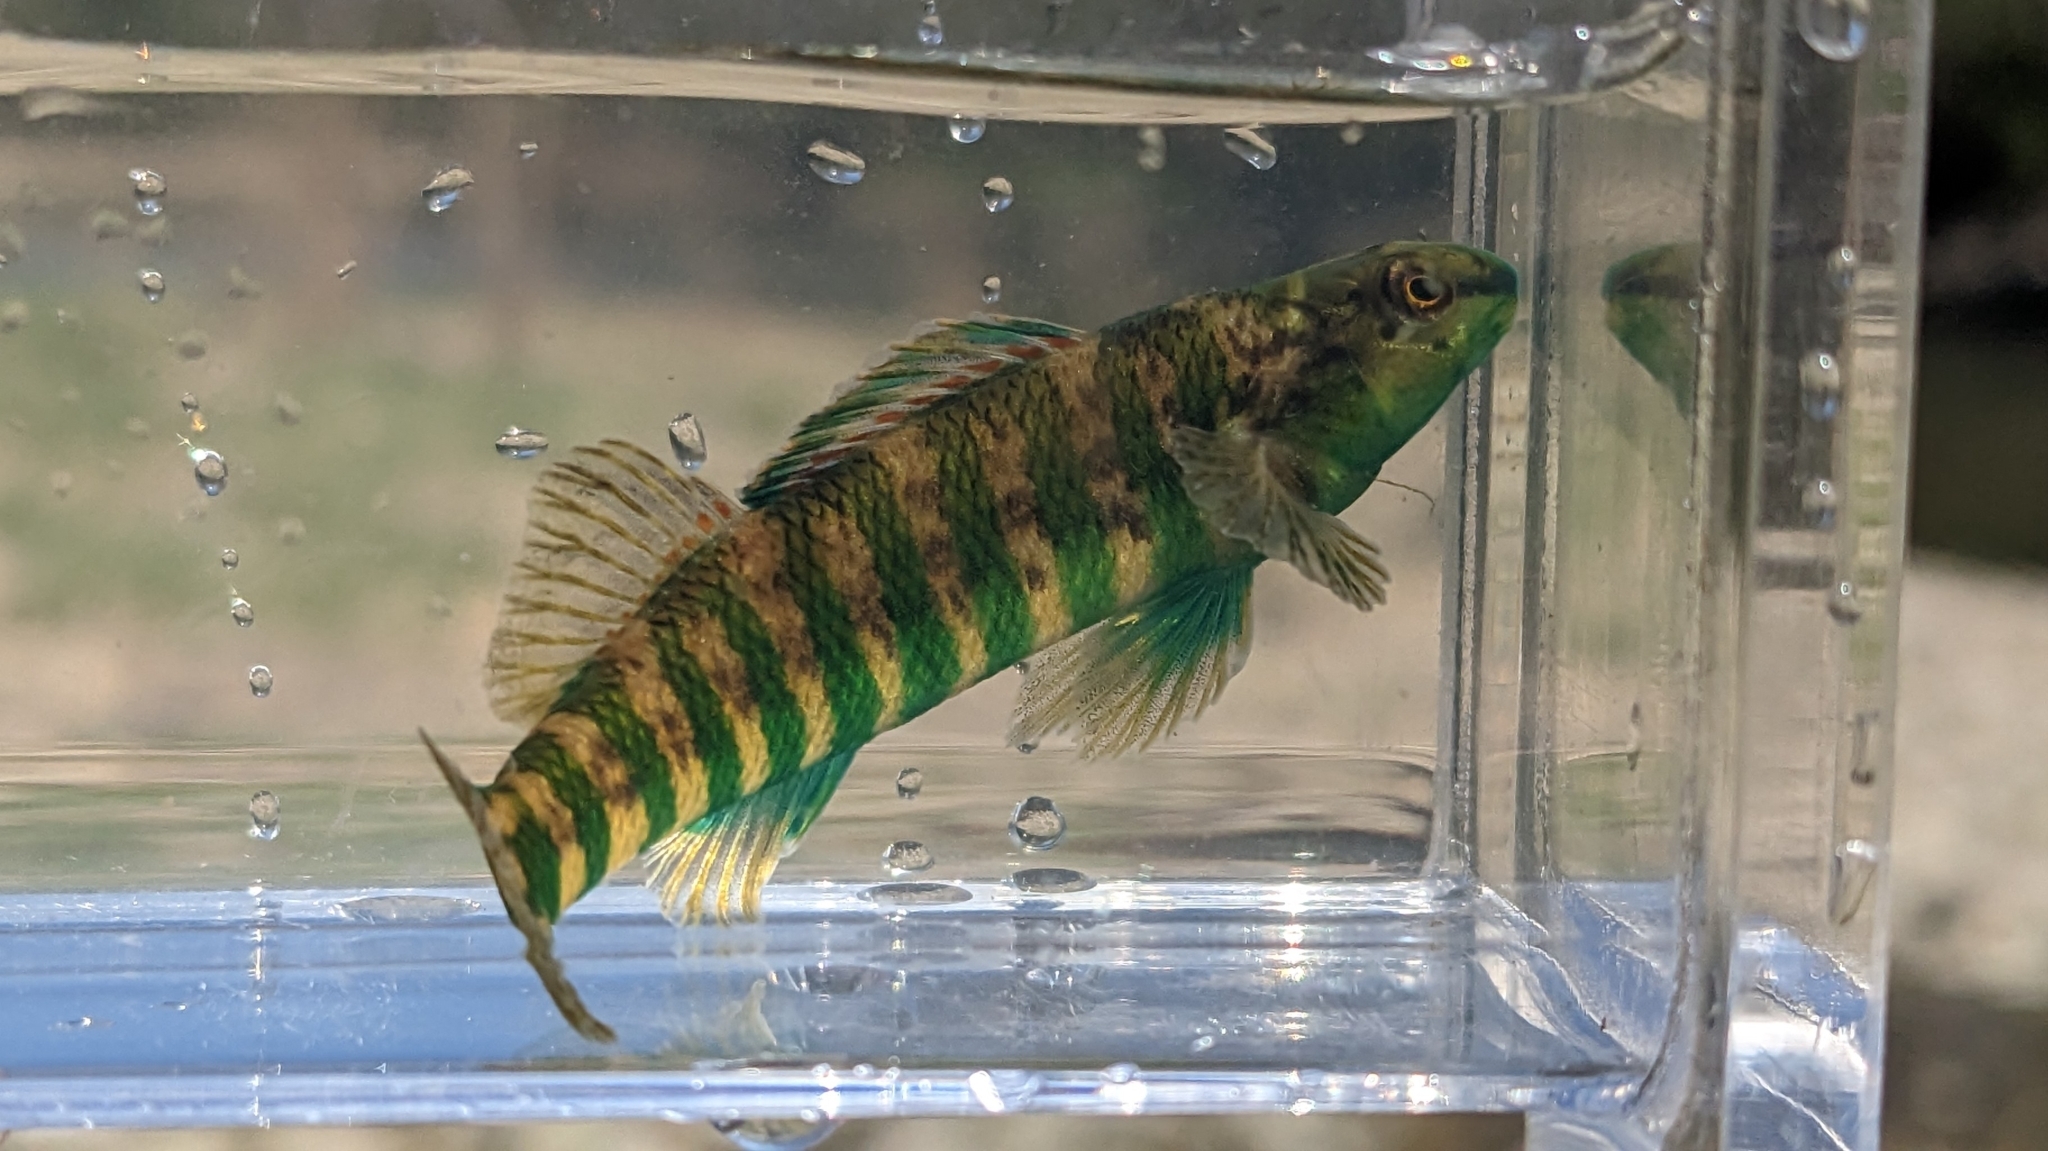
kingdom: Animalia
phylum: Chordata
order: Perciformes
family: Percidae
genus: Etheostoma
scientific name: Etheostoma zonale
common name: Banded darter
